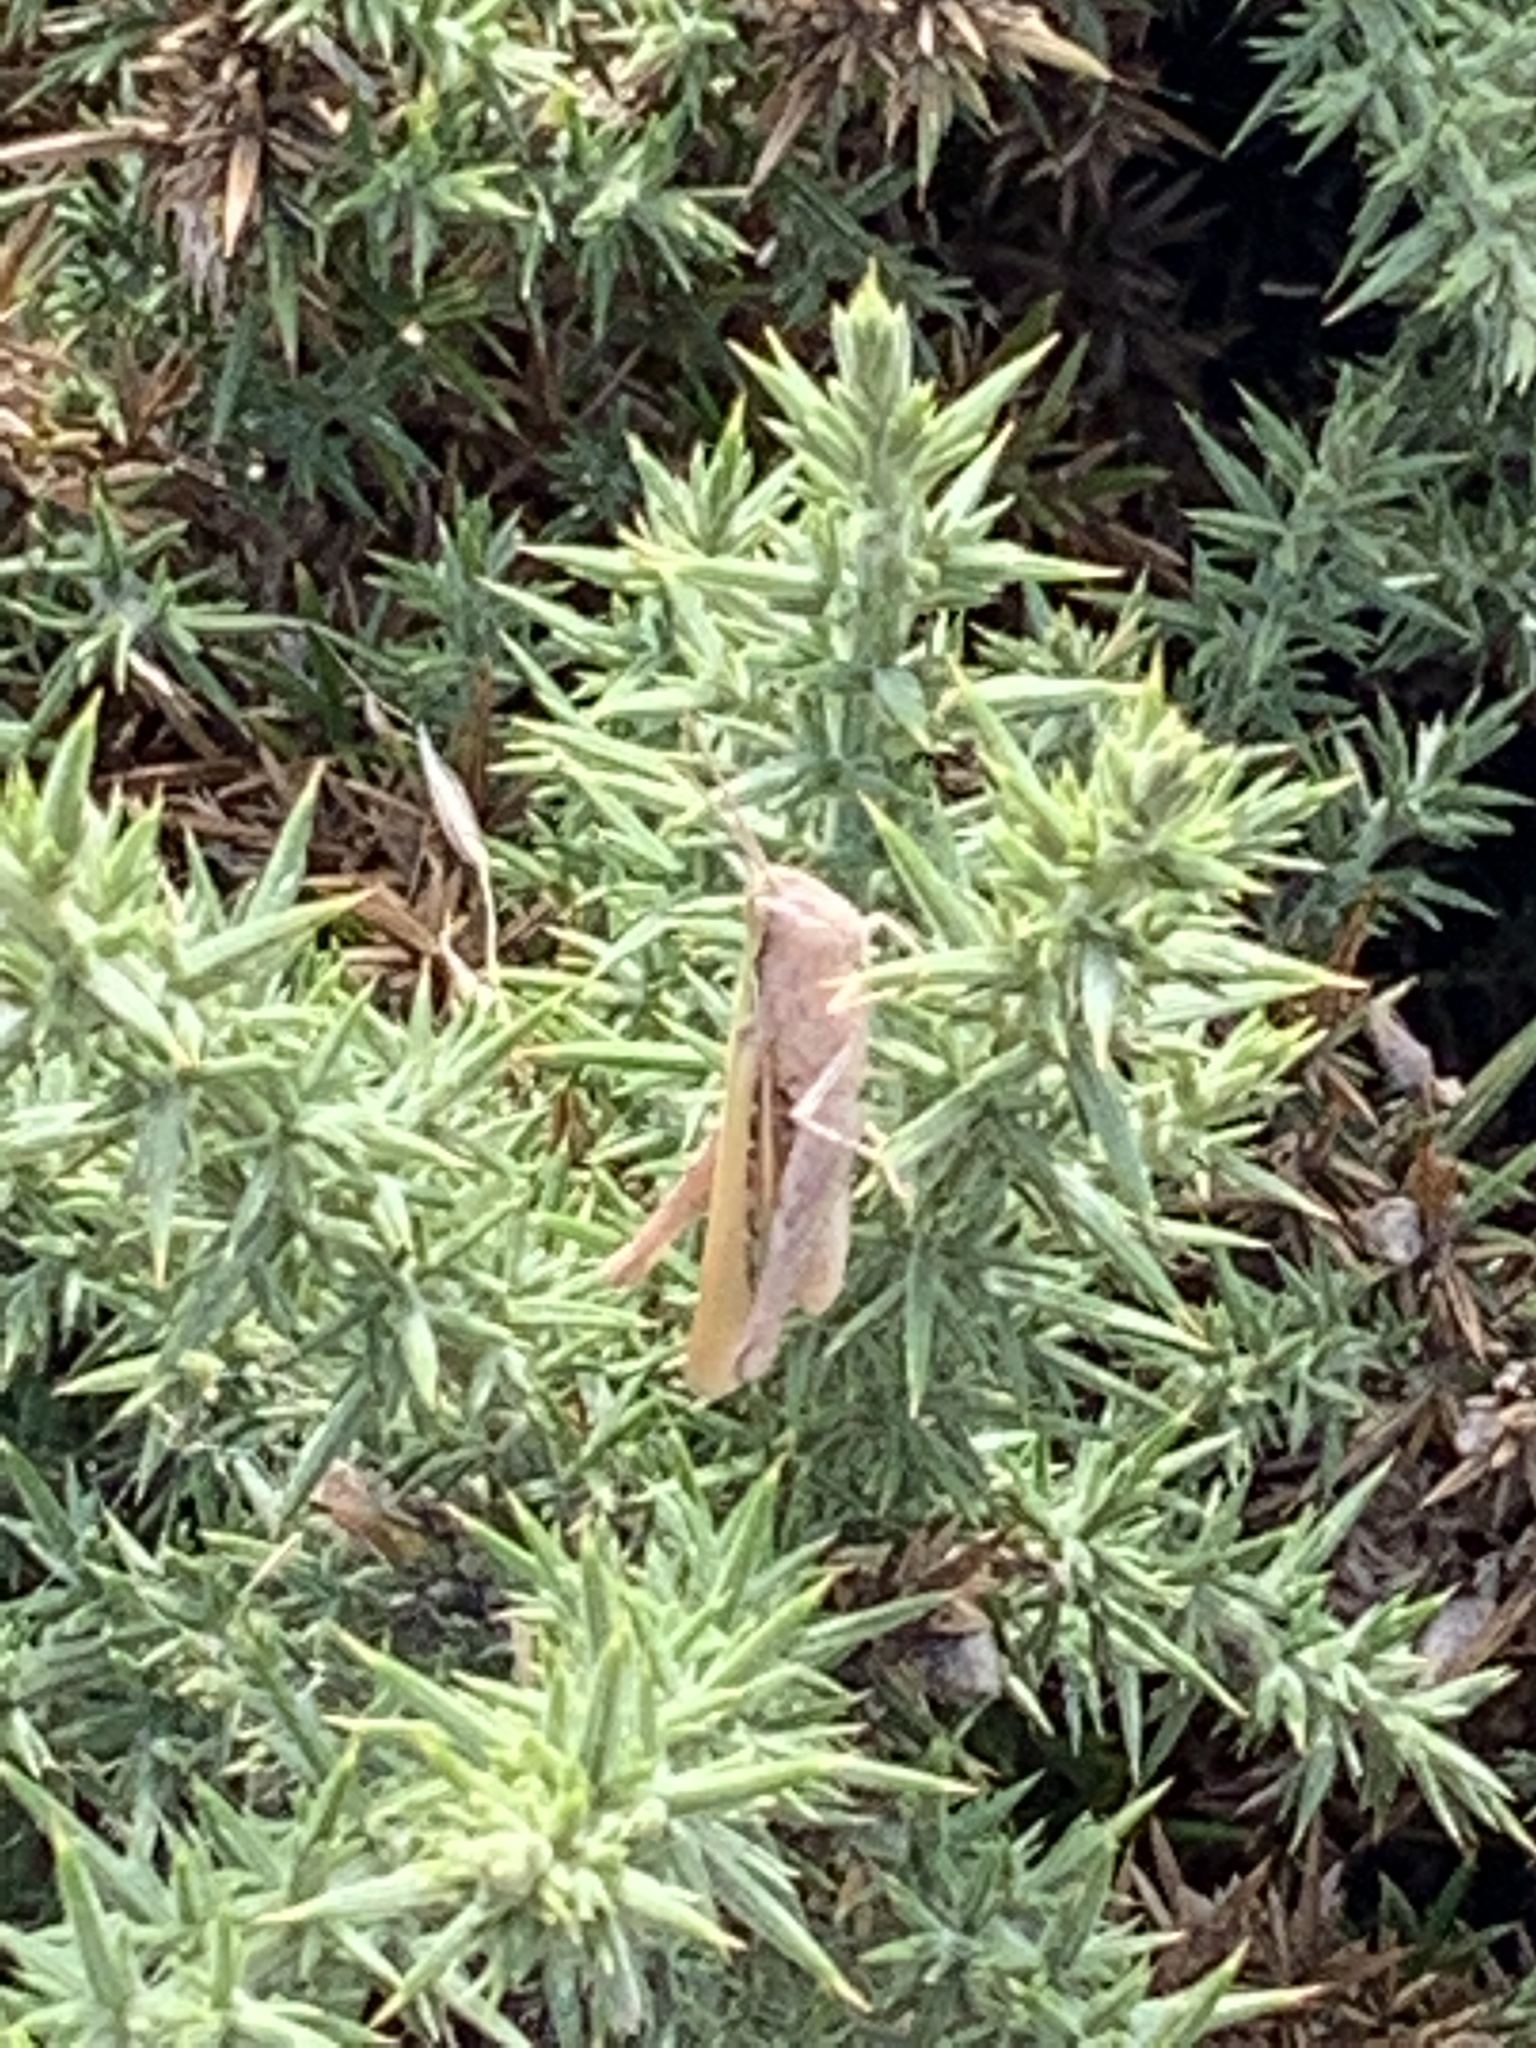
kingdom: Animalia
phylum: Arthropoda
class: Insecta
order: Orthoptera
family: Acrididae
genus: Chorthippus
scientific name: Chorthippus brunneus
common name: Field grasshopper
